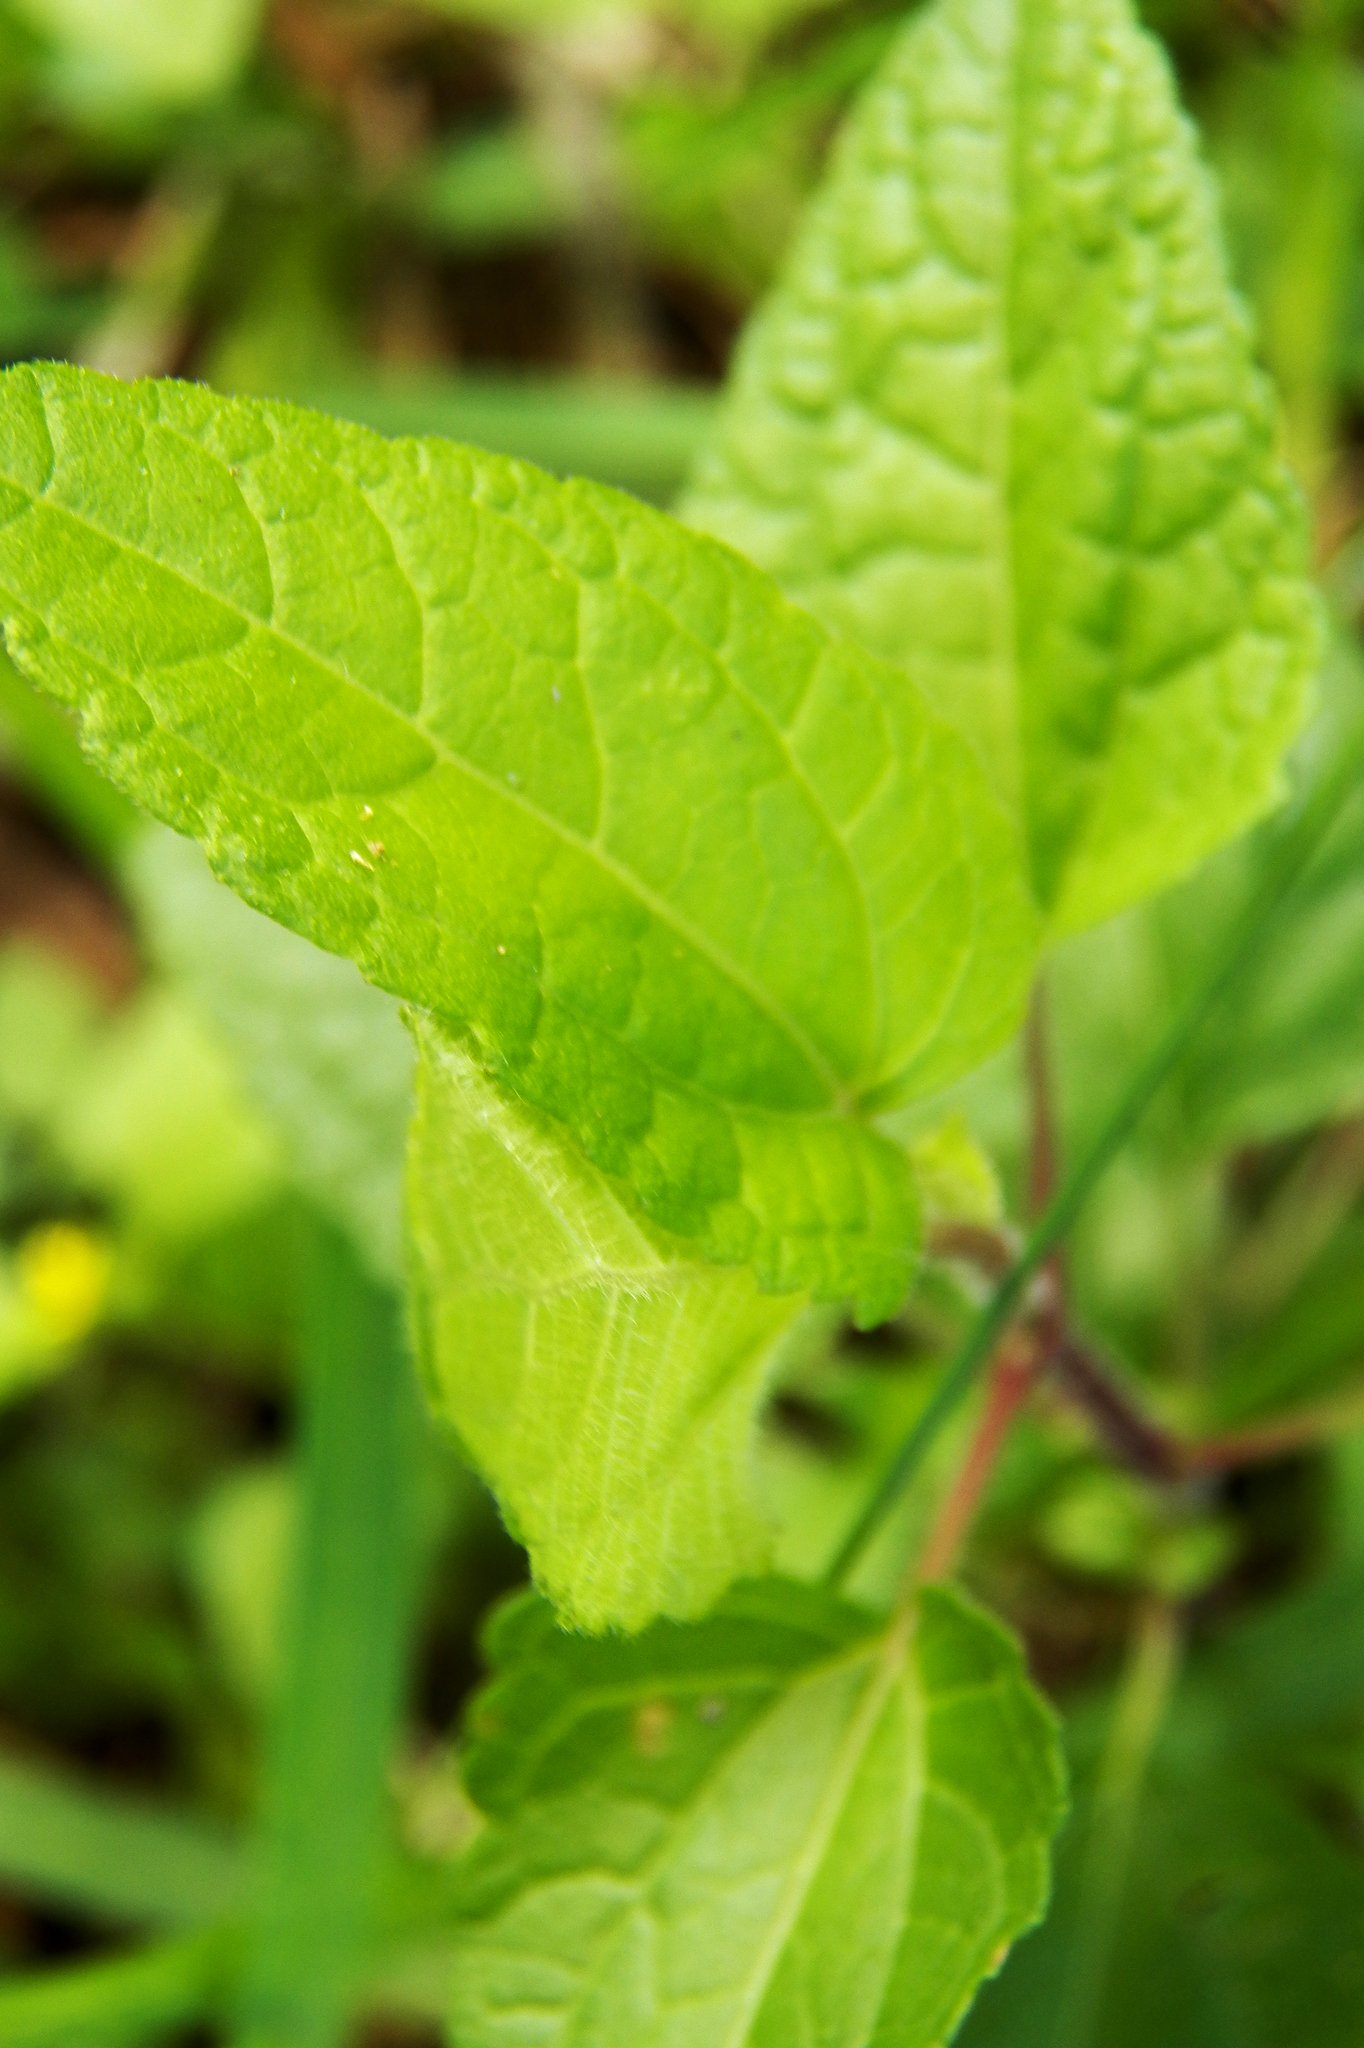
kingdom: Plantae
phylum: Tracheophyta
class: Magnoliopsida
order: Asterales
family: Asteraceae
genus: Conoclinium
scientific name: Conoclinium coelestinum
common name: Blue mistflower
